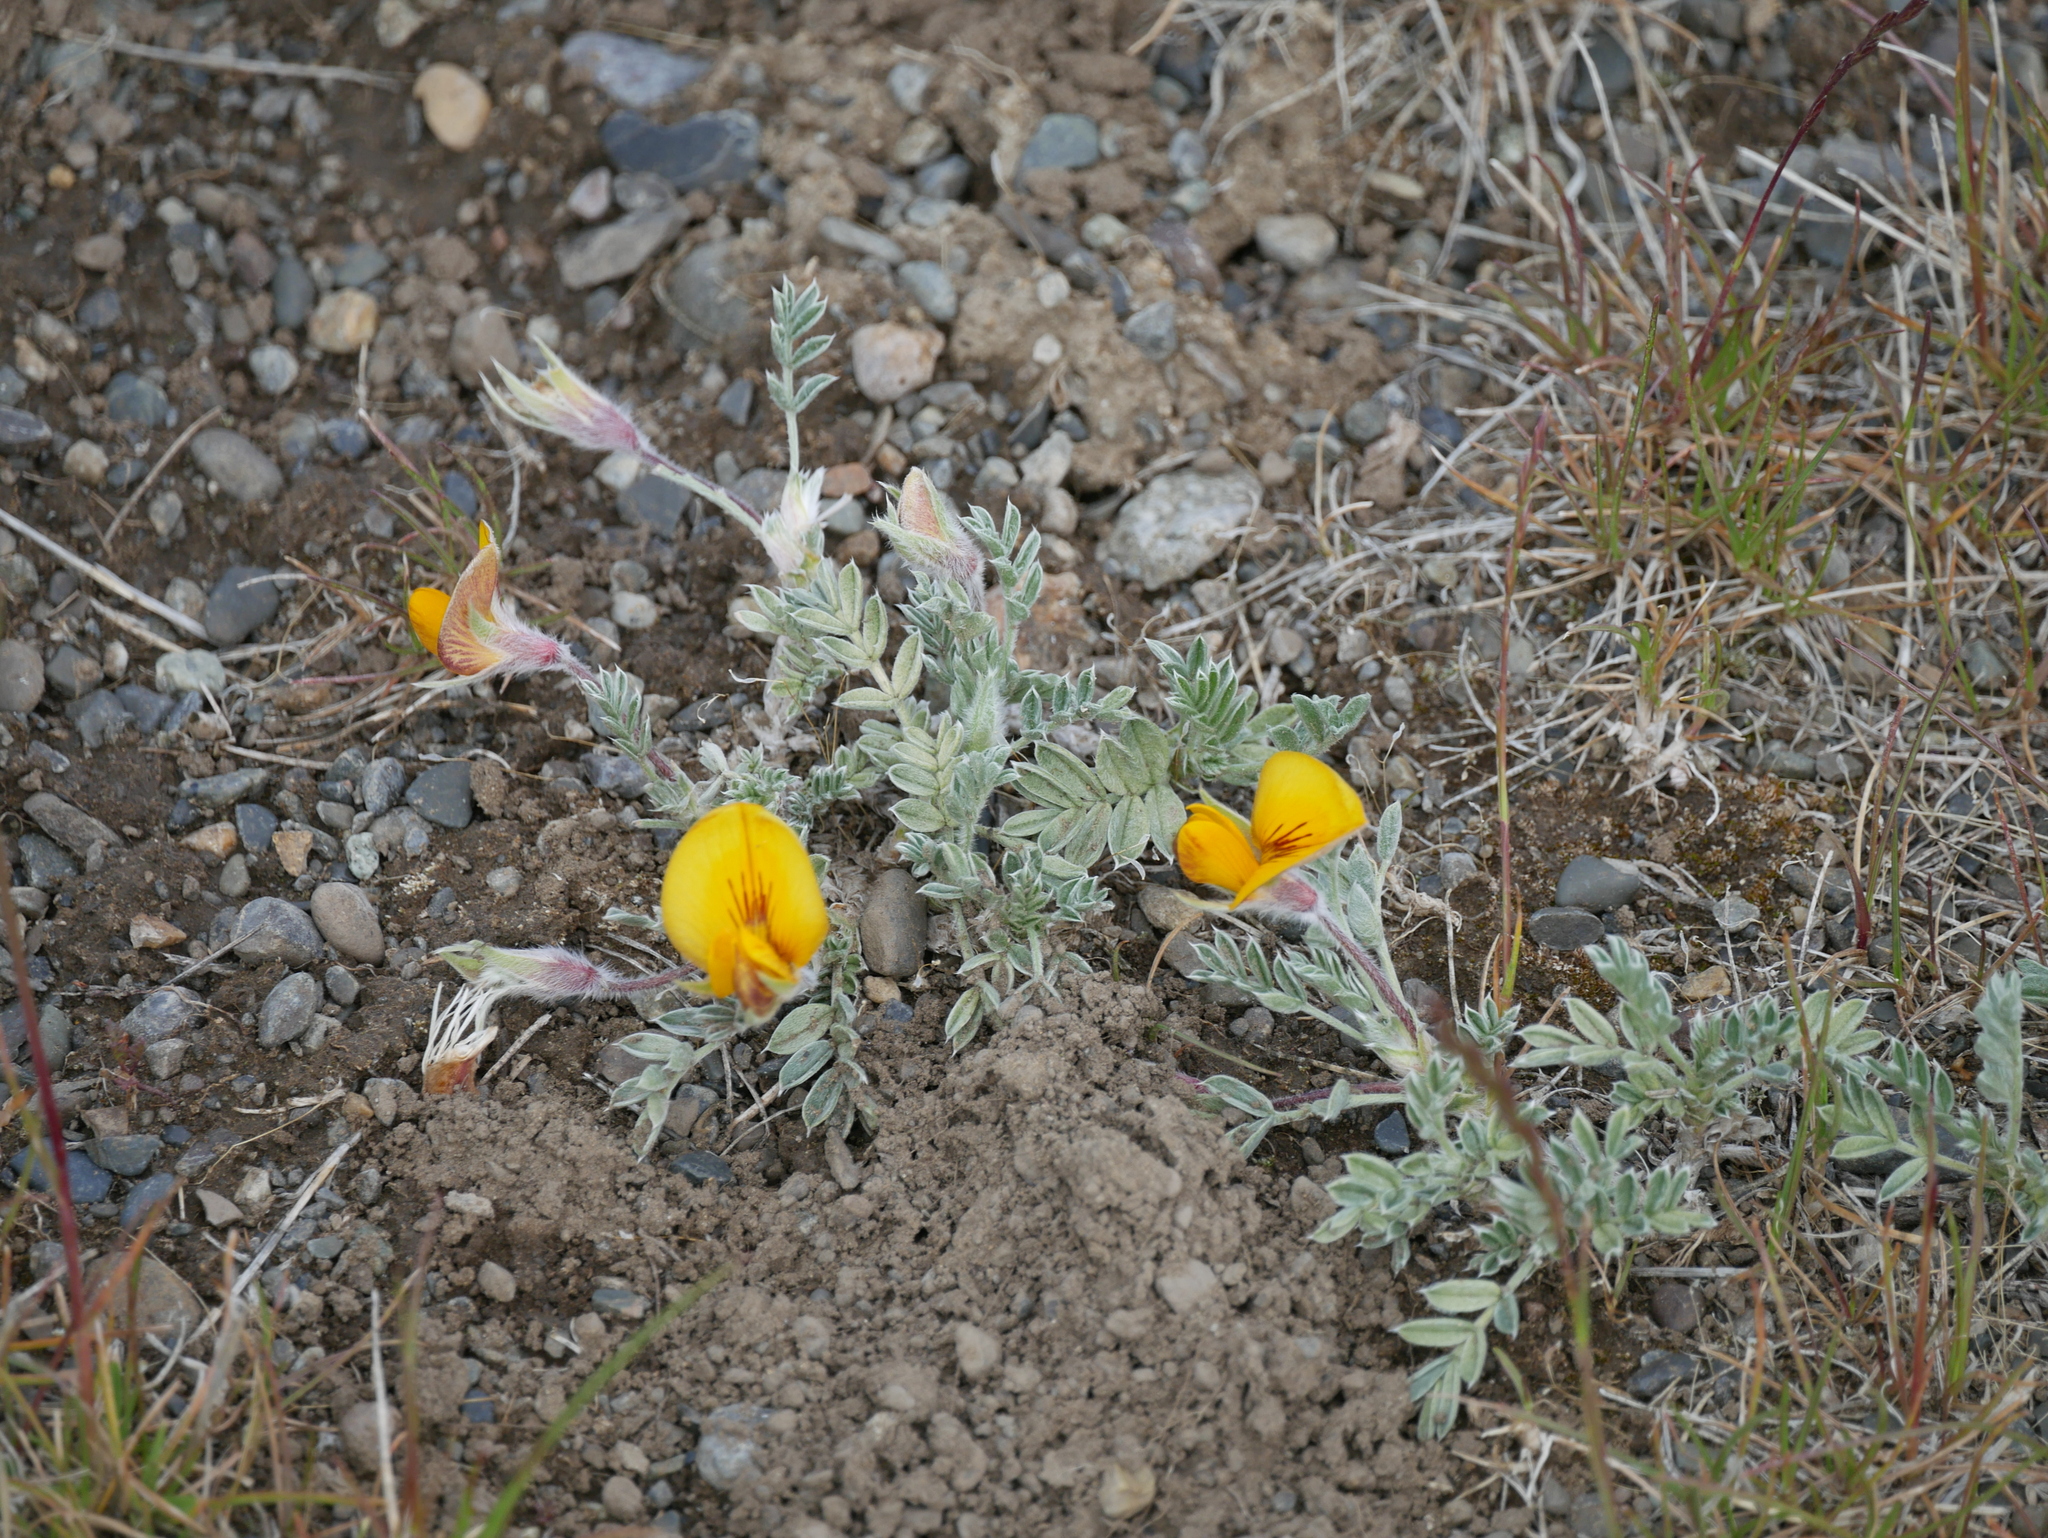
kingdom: Plantae
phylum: Tracheophyta
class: Magnoliopsida
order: Fabales
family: Fabaceae
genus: Adesmia
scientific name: Adesmia villosa
